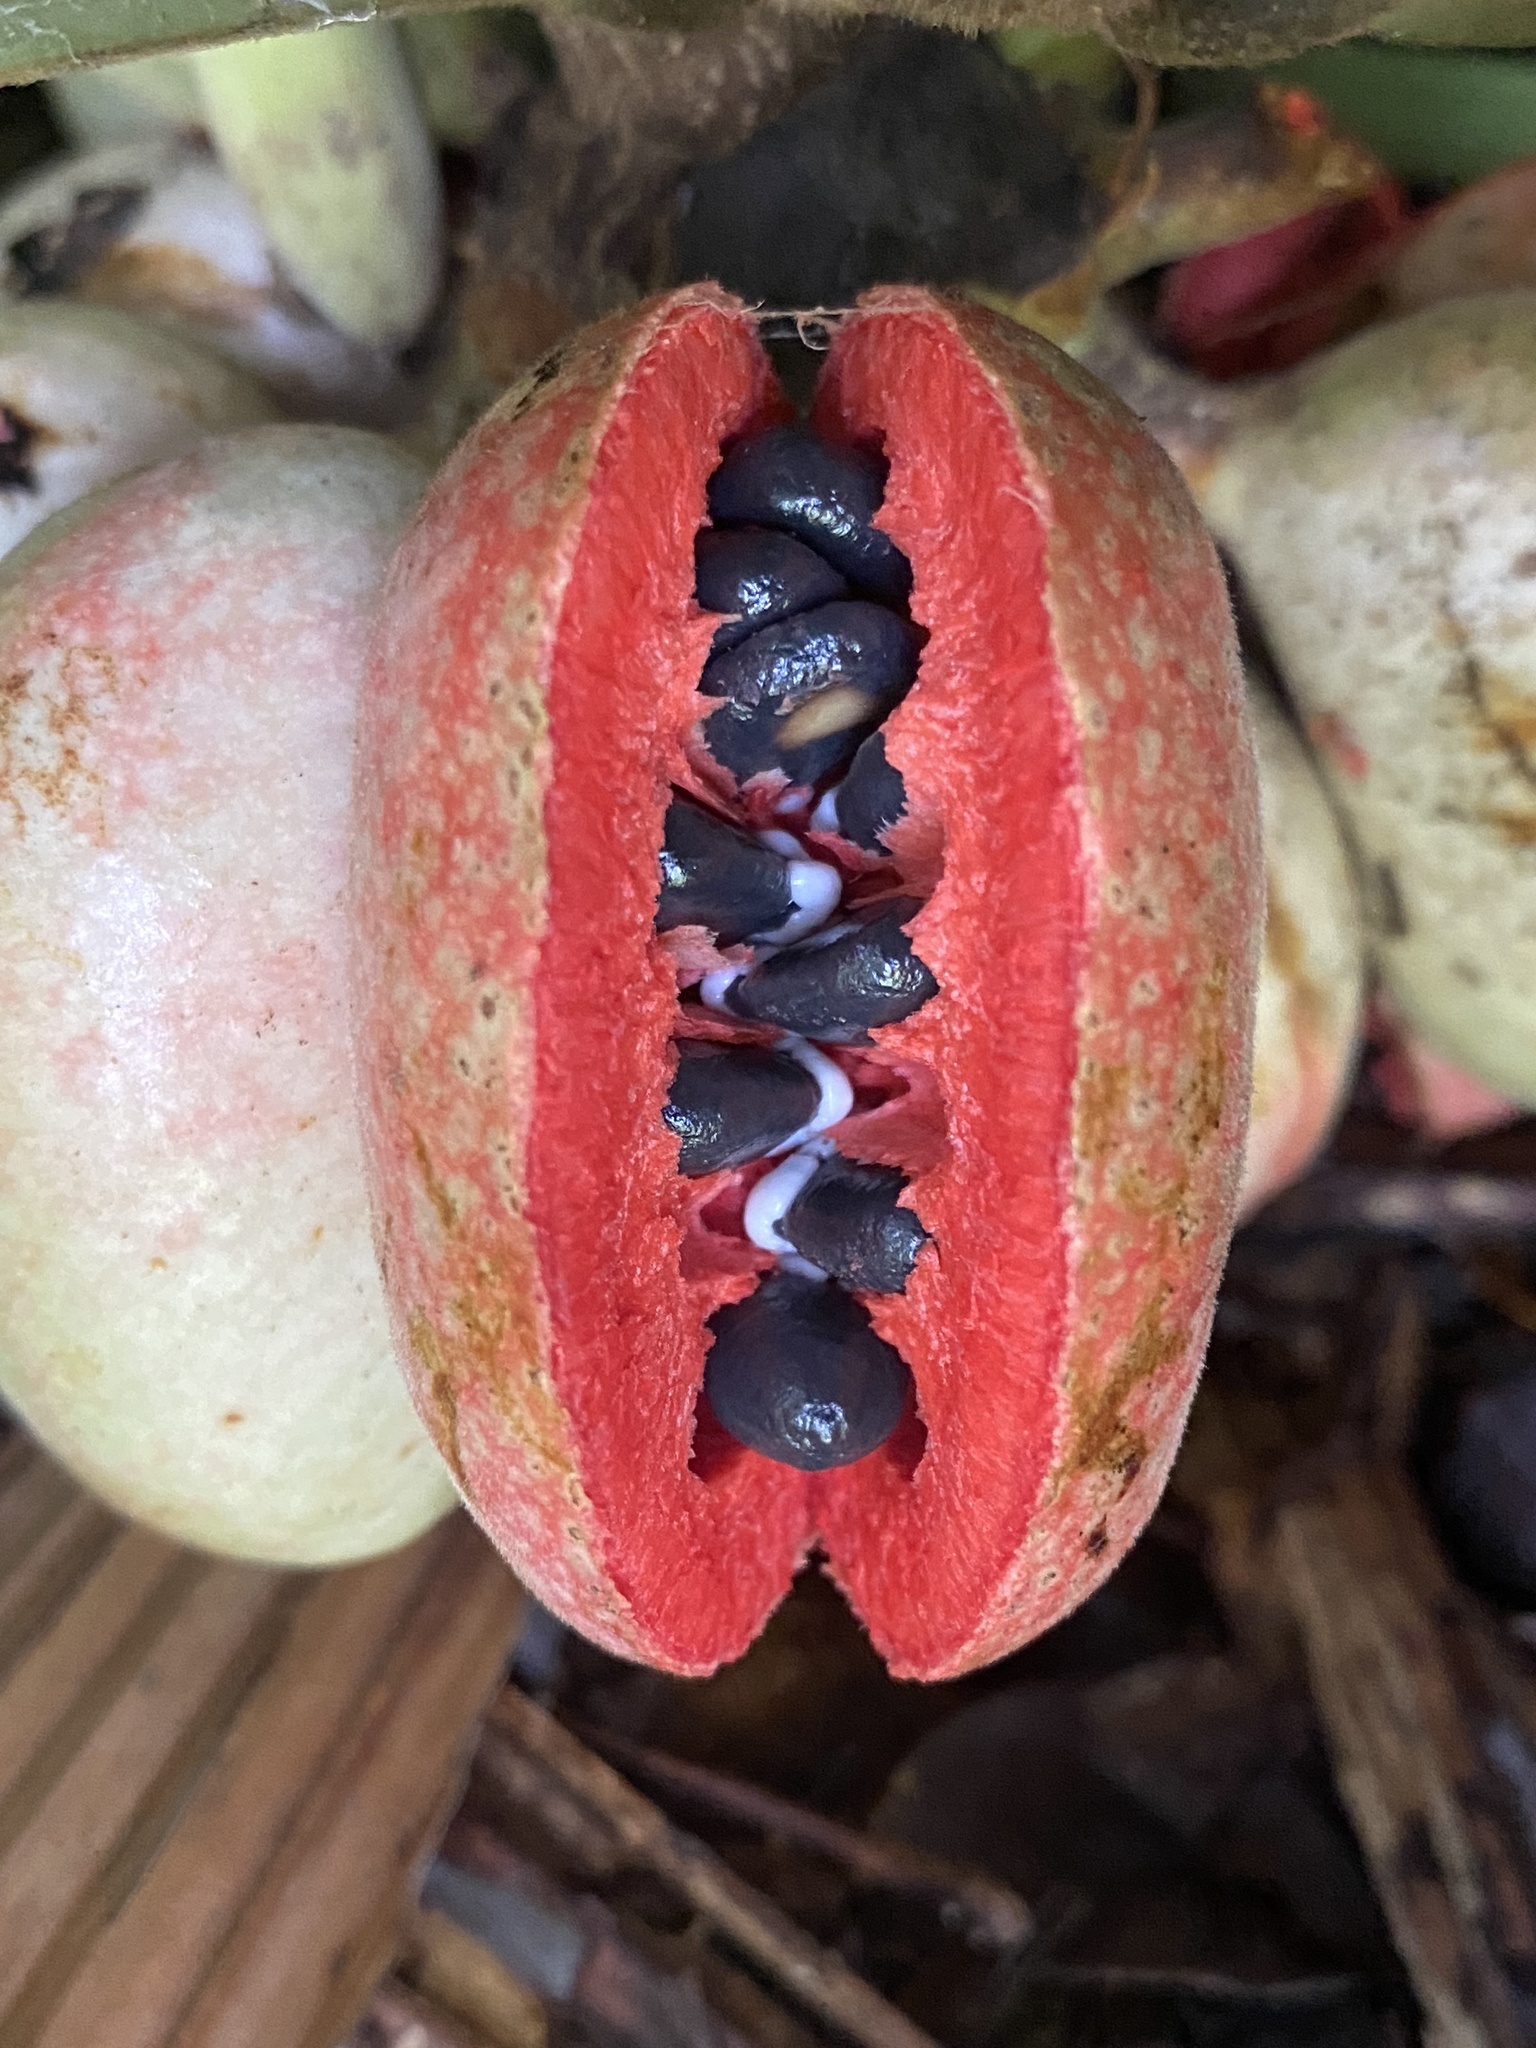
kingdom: Plantae
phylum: Tracheophyta
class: Magnoliopsida
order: Magnoliales
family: Annonaceae
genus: Xylopia
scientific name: Xylopia macrantha
